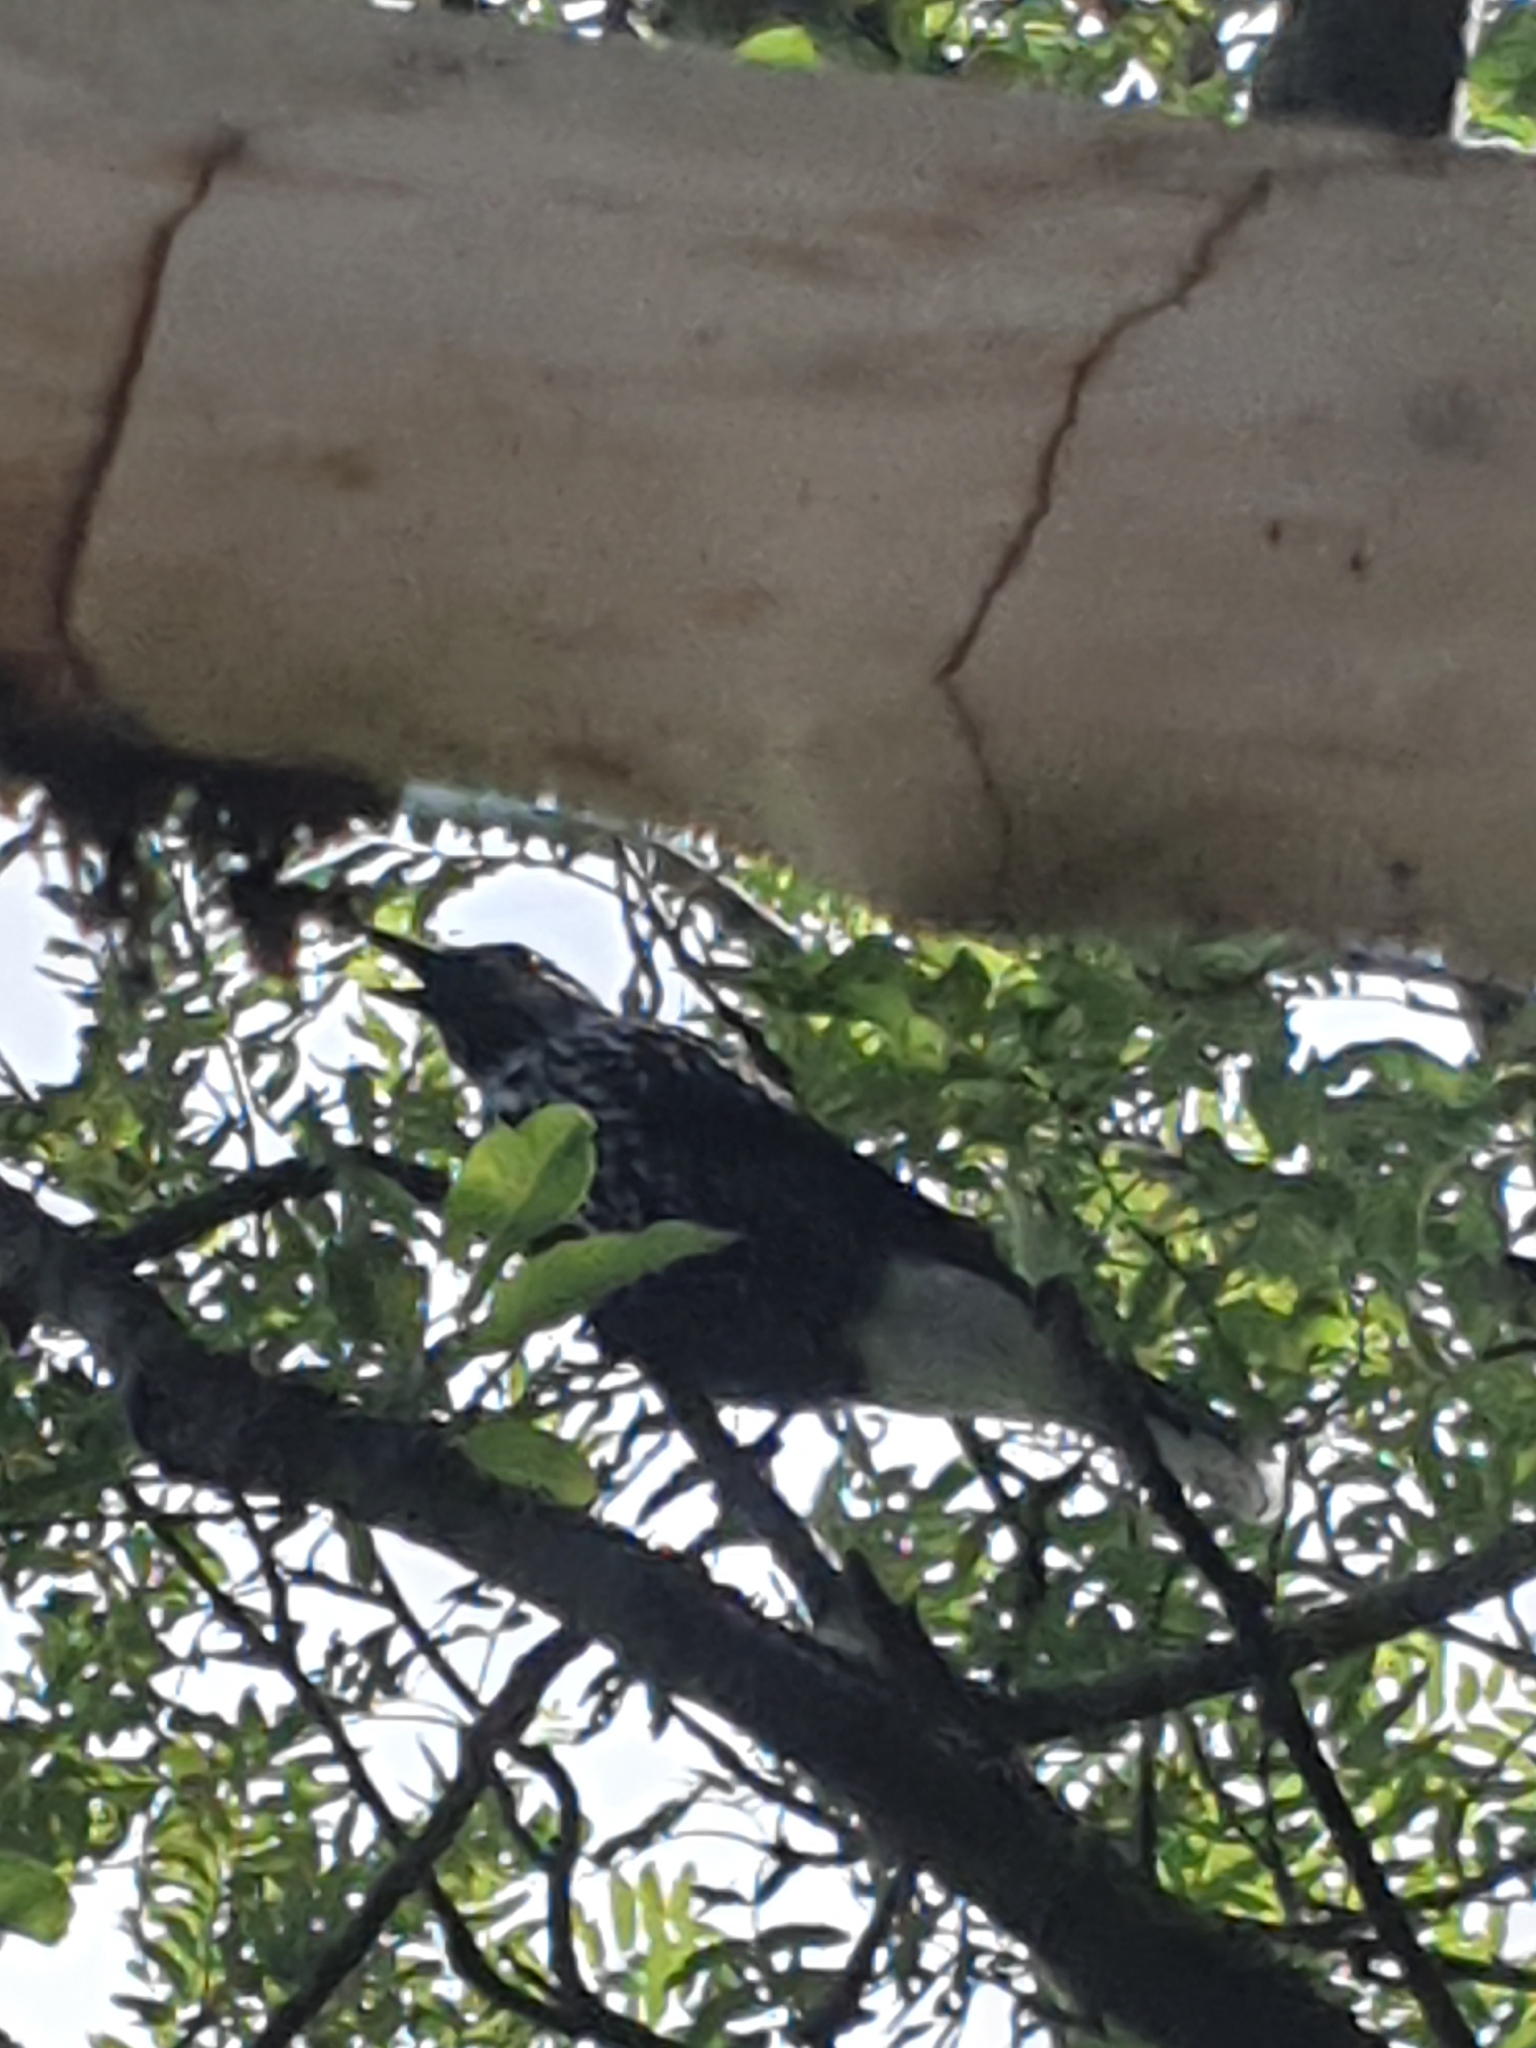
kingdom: Animalia
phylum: Chordata
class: Aves
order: Passeriformes
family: Corvidae
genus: Nucifraga
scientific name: Nucifraga caryocatactes
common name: Spotted nutcracker
